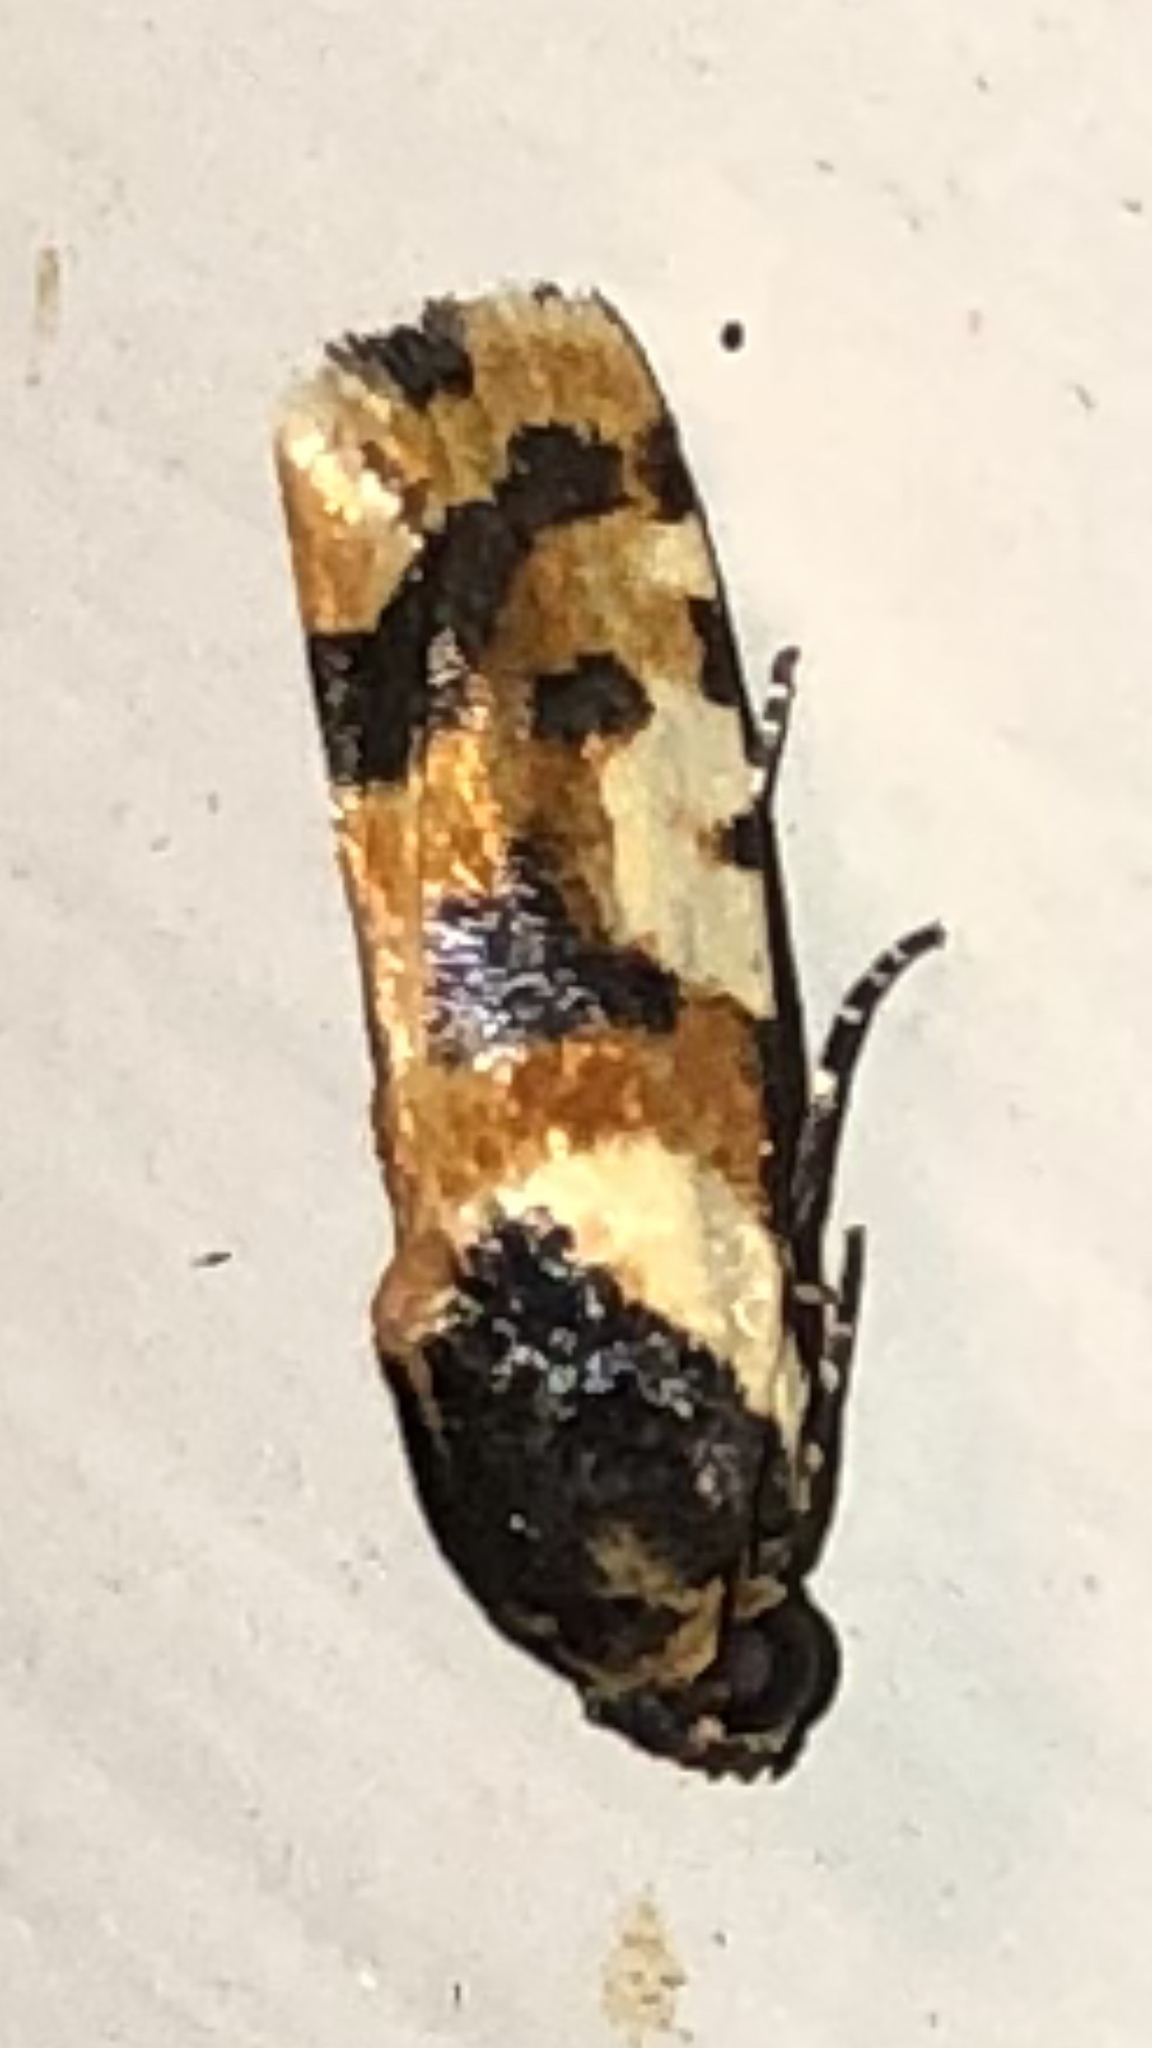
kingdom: Animalia
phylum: Arthropoda
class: Insecta
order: Lepidoptera
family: Noctuidae
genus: Acontia
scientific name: Acontia dama
